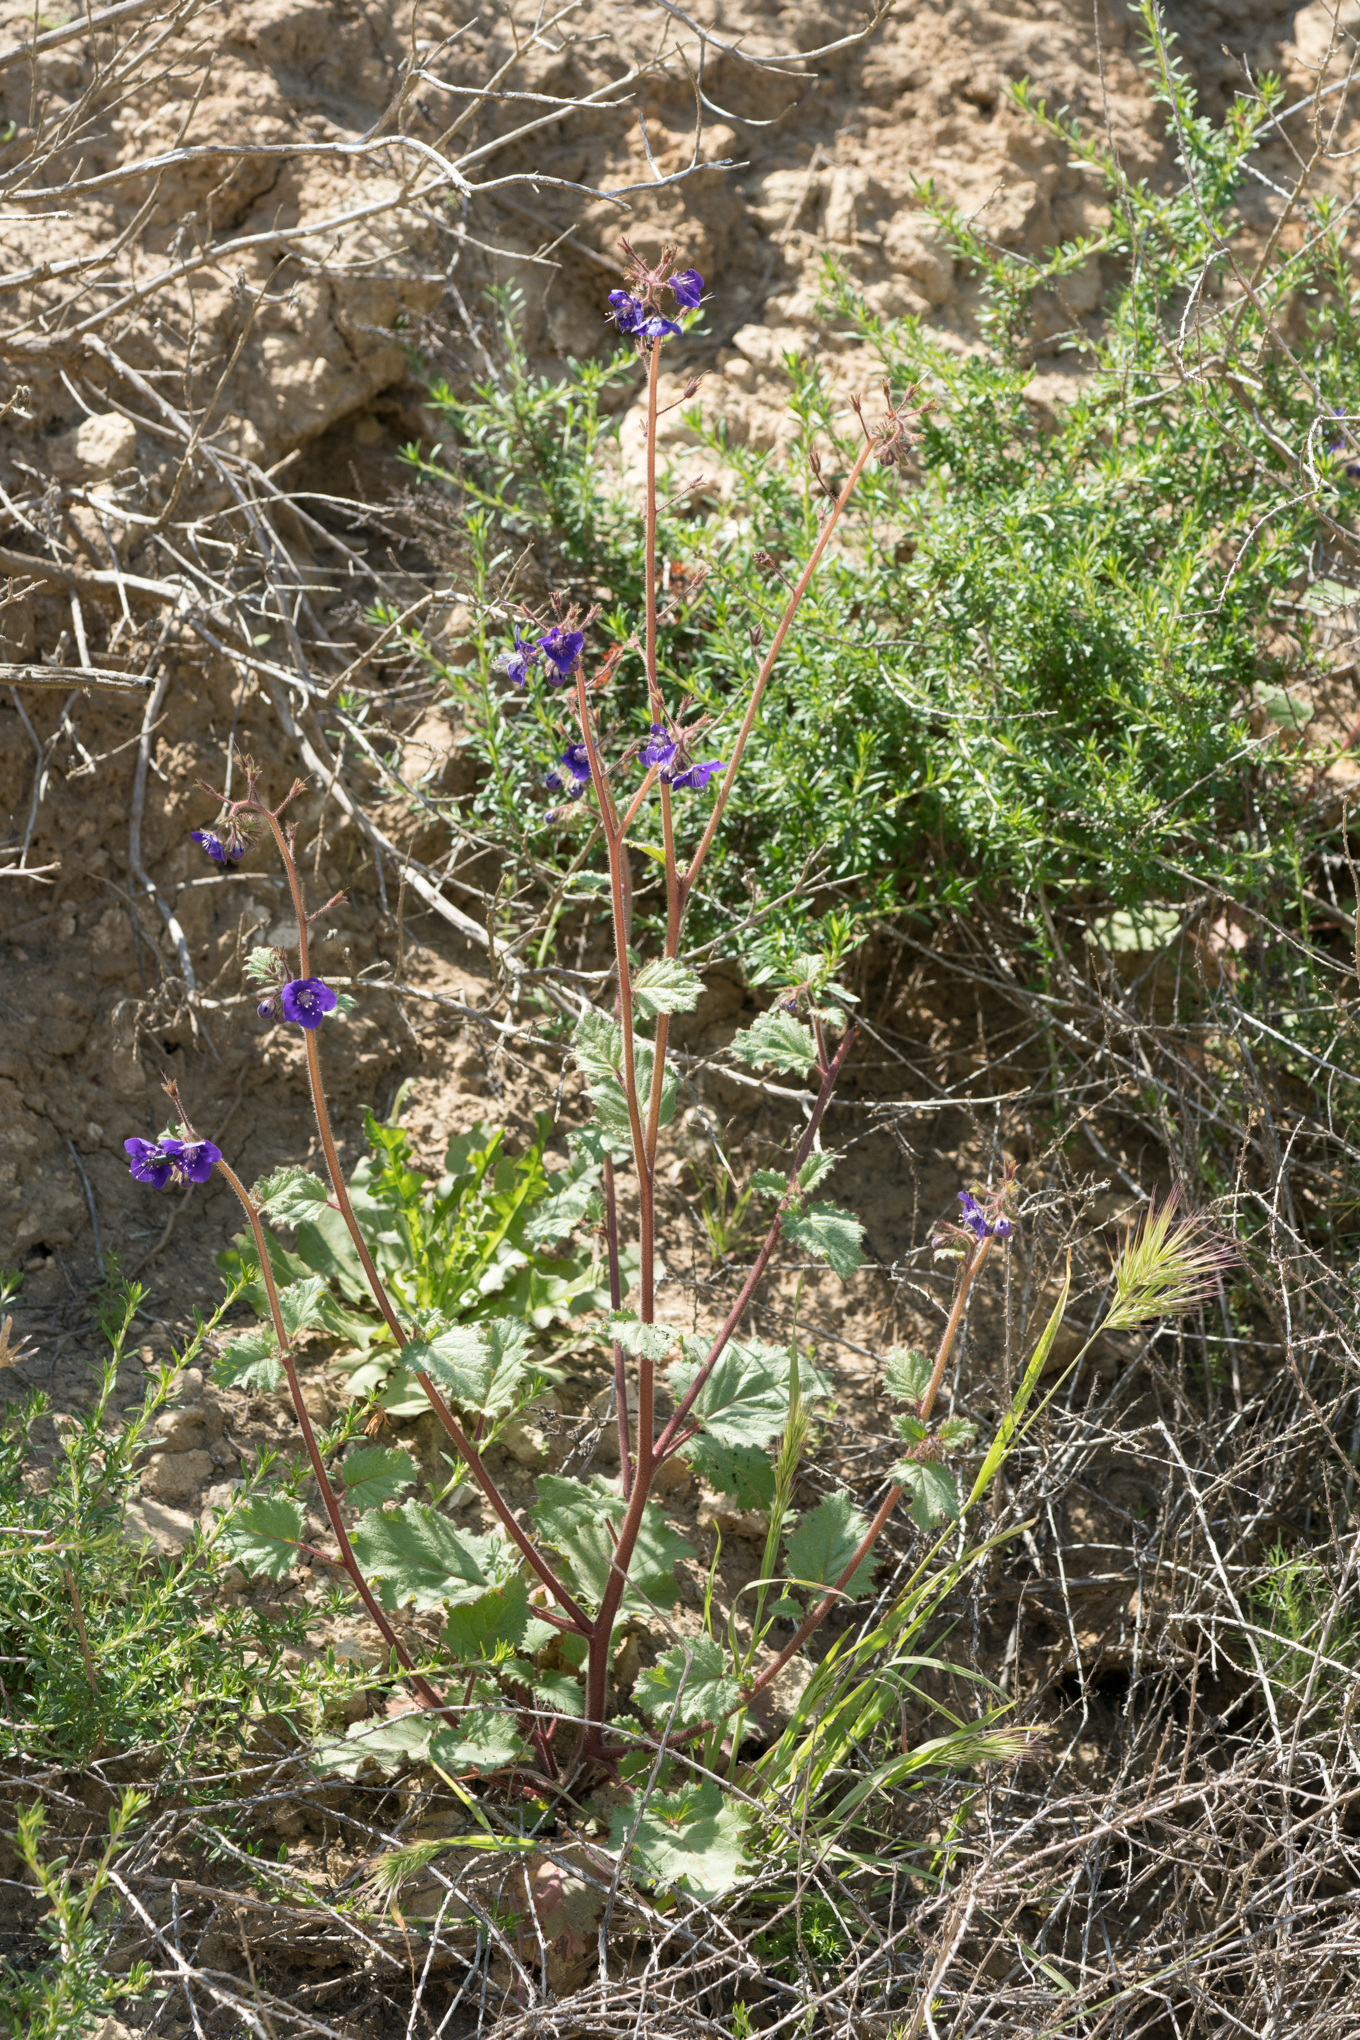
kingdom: Plantae
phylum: Tracheophyta
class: Magnoliopsida
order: Boraginales
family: Hydrophyllaceae
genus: Phacelia
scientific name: Phacelia parryi
